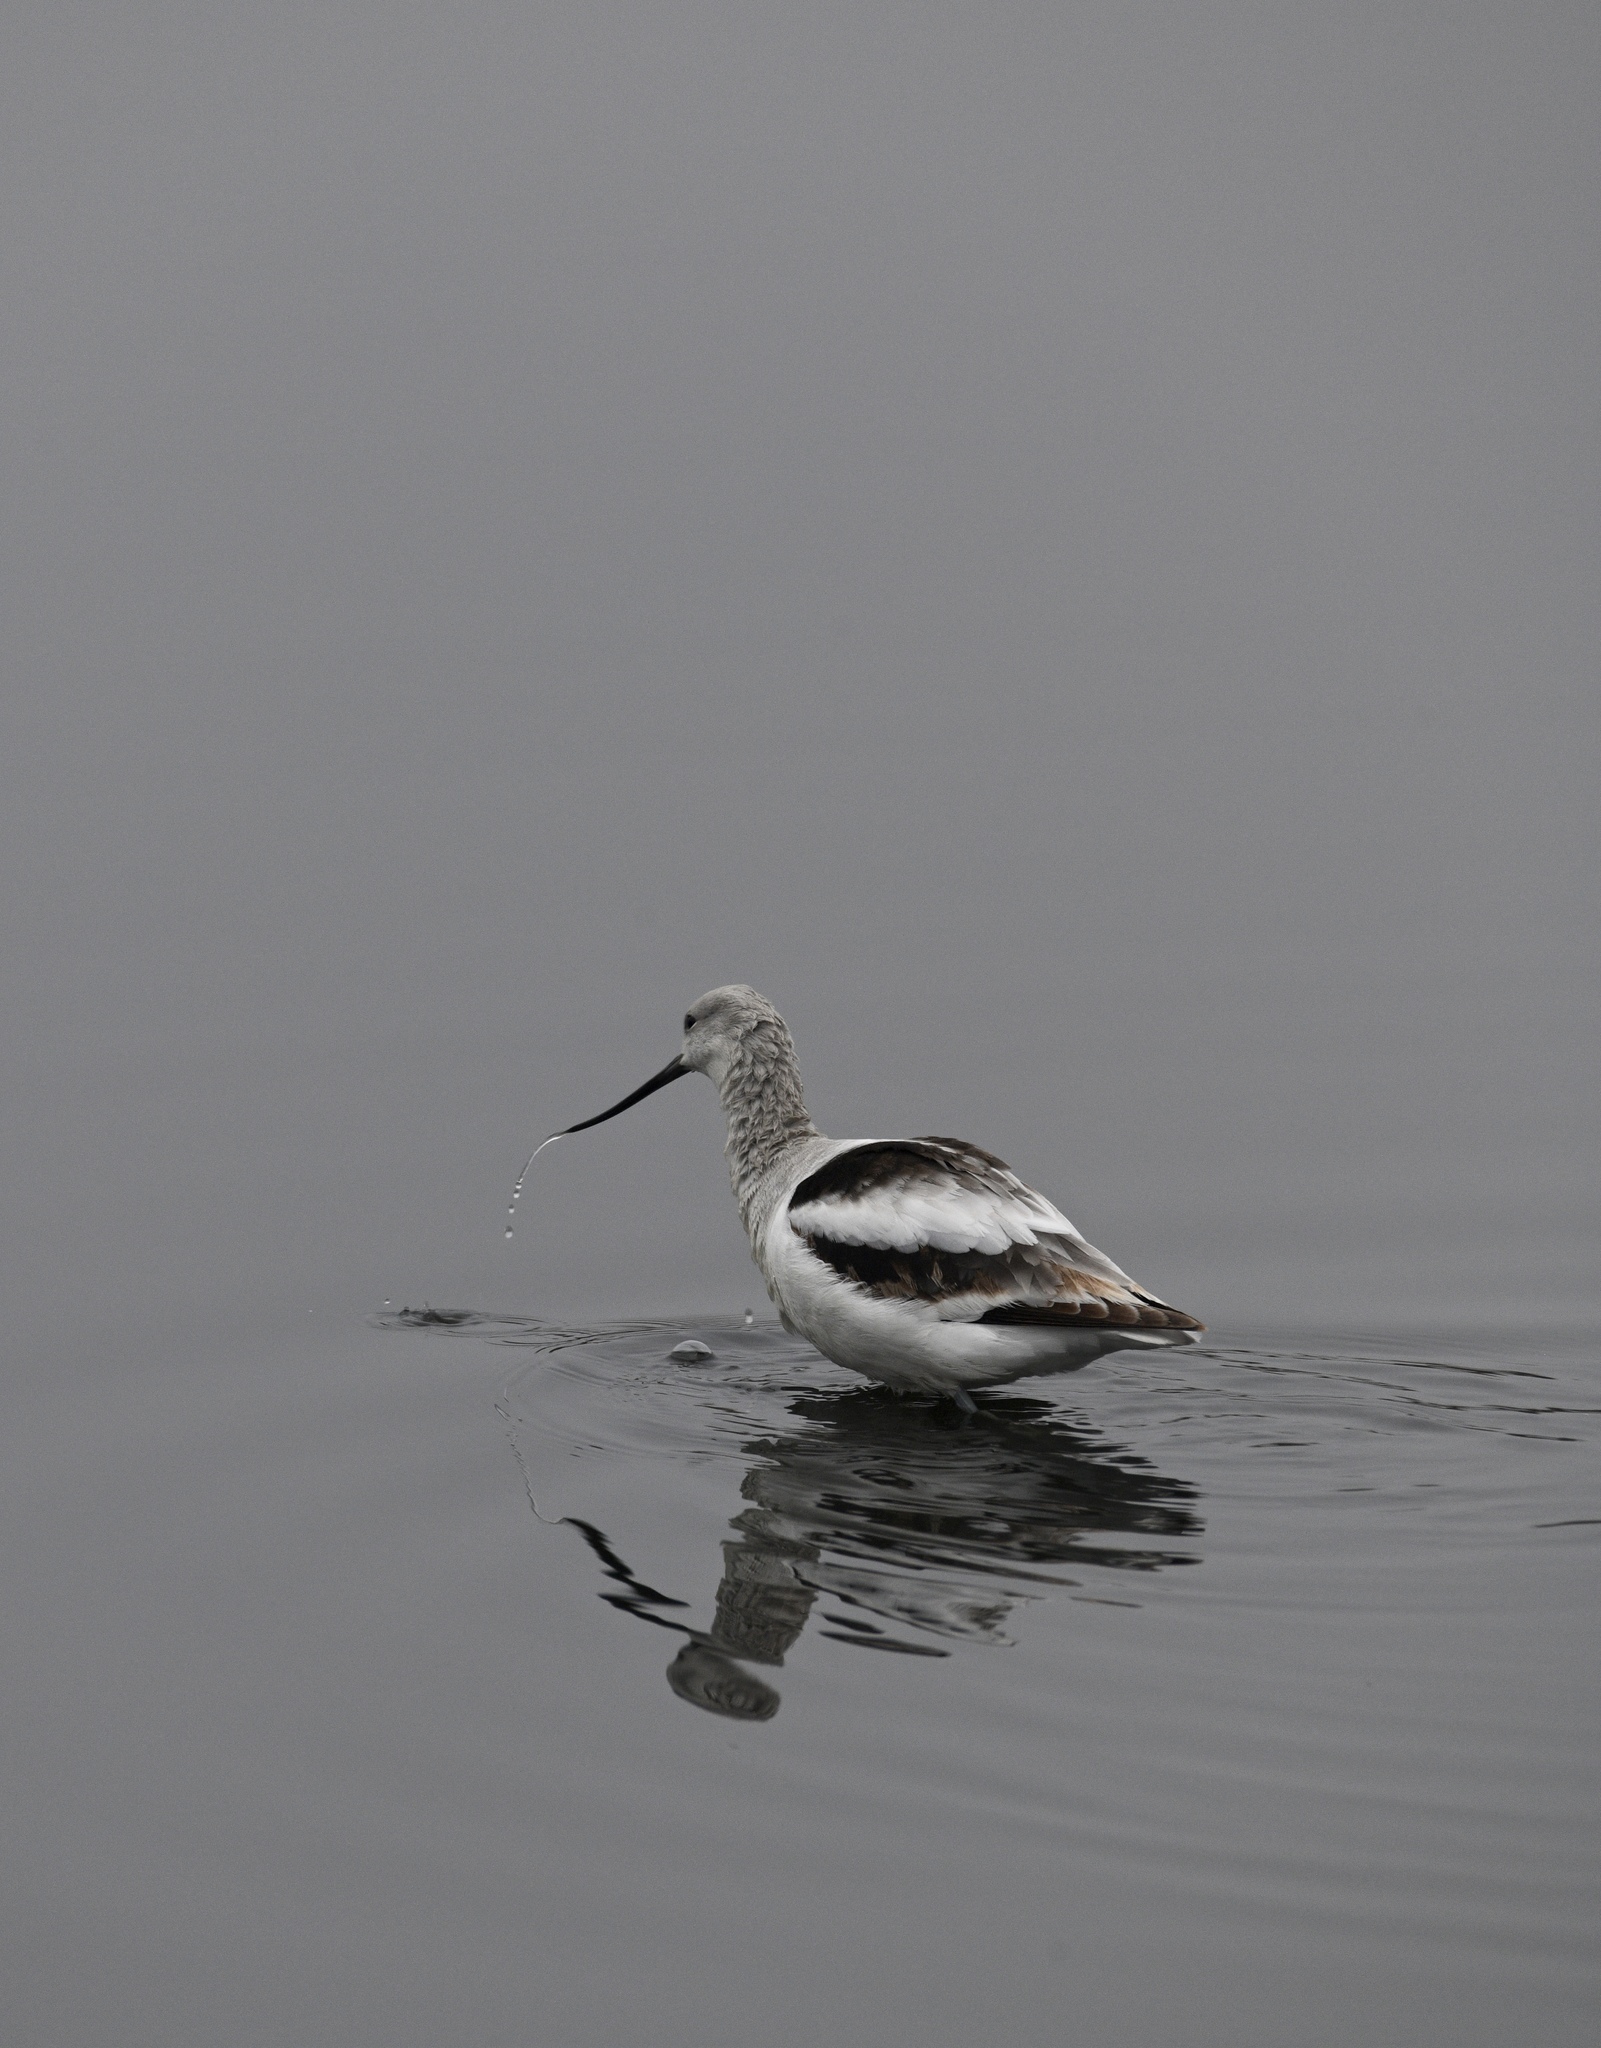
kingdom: Animalia
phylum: Chordata
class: Aves
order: Charadriiformes
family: Recurvirostridae
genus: Recurvirostra
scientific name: Recurvirostra americana
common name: American avocet
